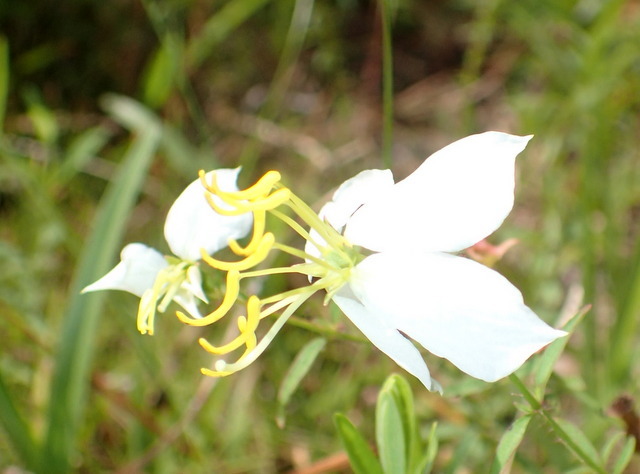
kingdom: Plantae
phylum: Tracheophyta
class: Magnoliopsida
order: Myrtales
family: Melastomataceae
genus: Rhexia
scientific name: Rhexia mariana
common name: Dull meadow-pitcher
